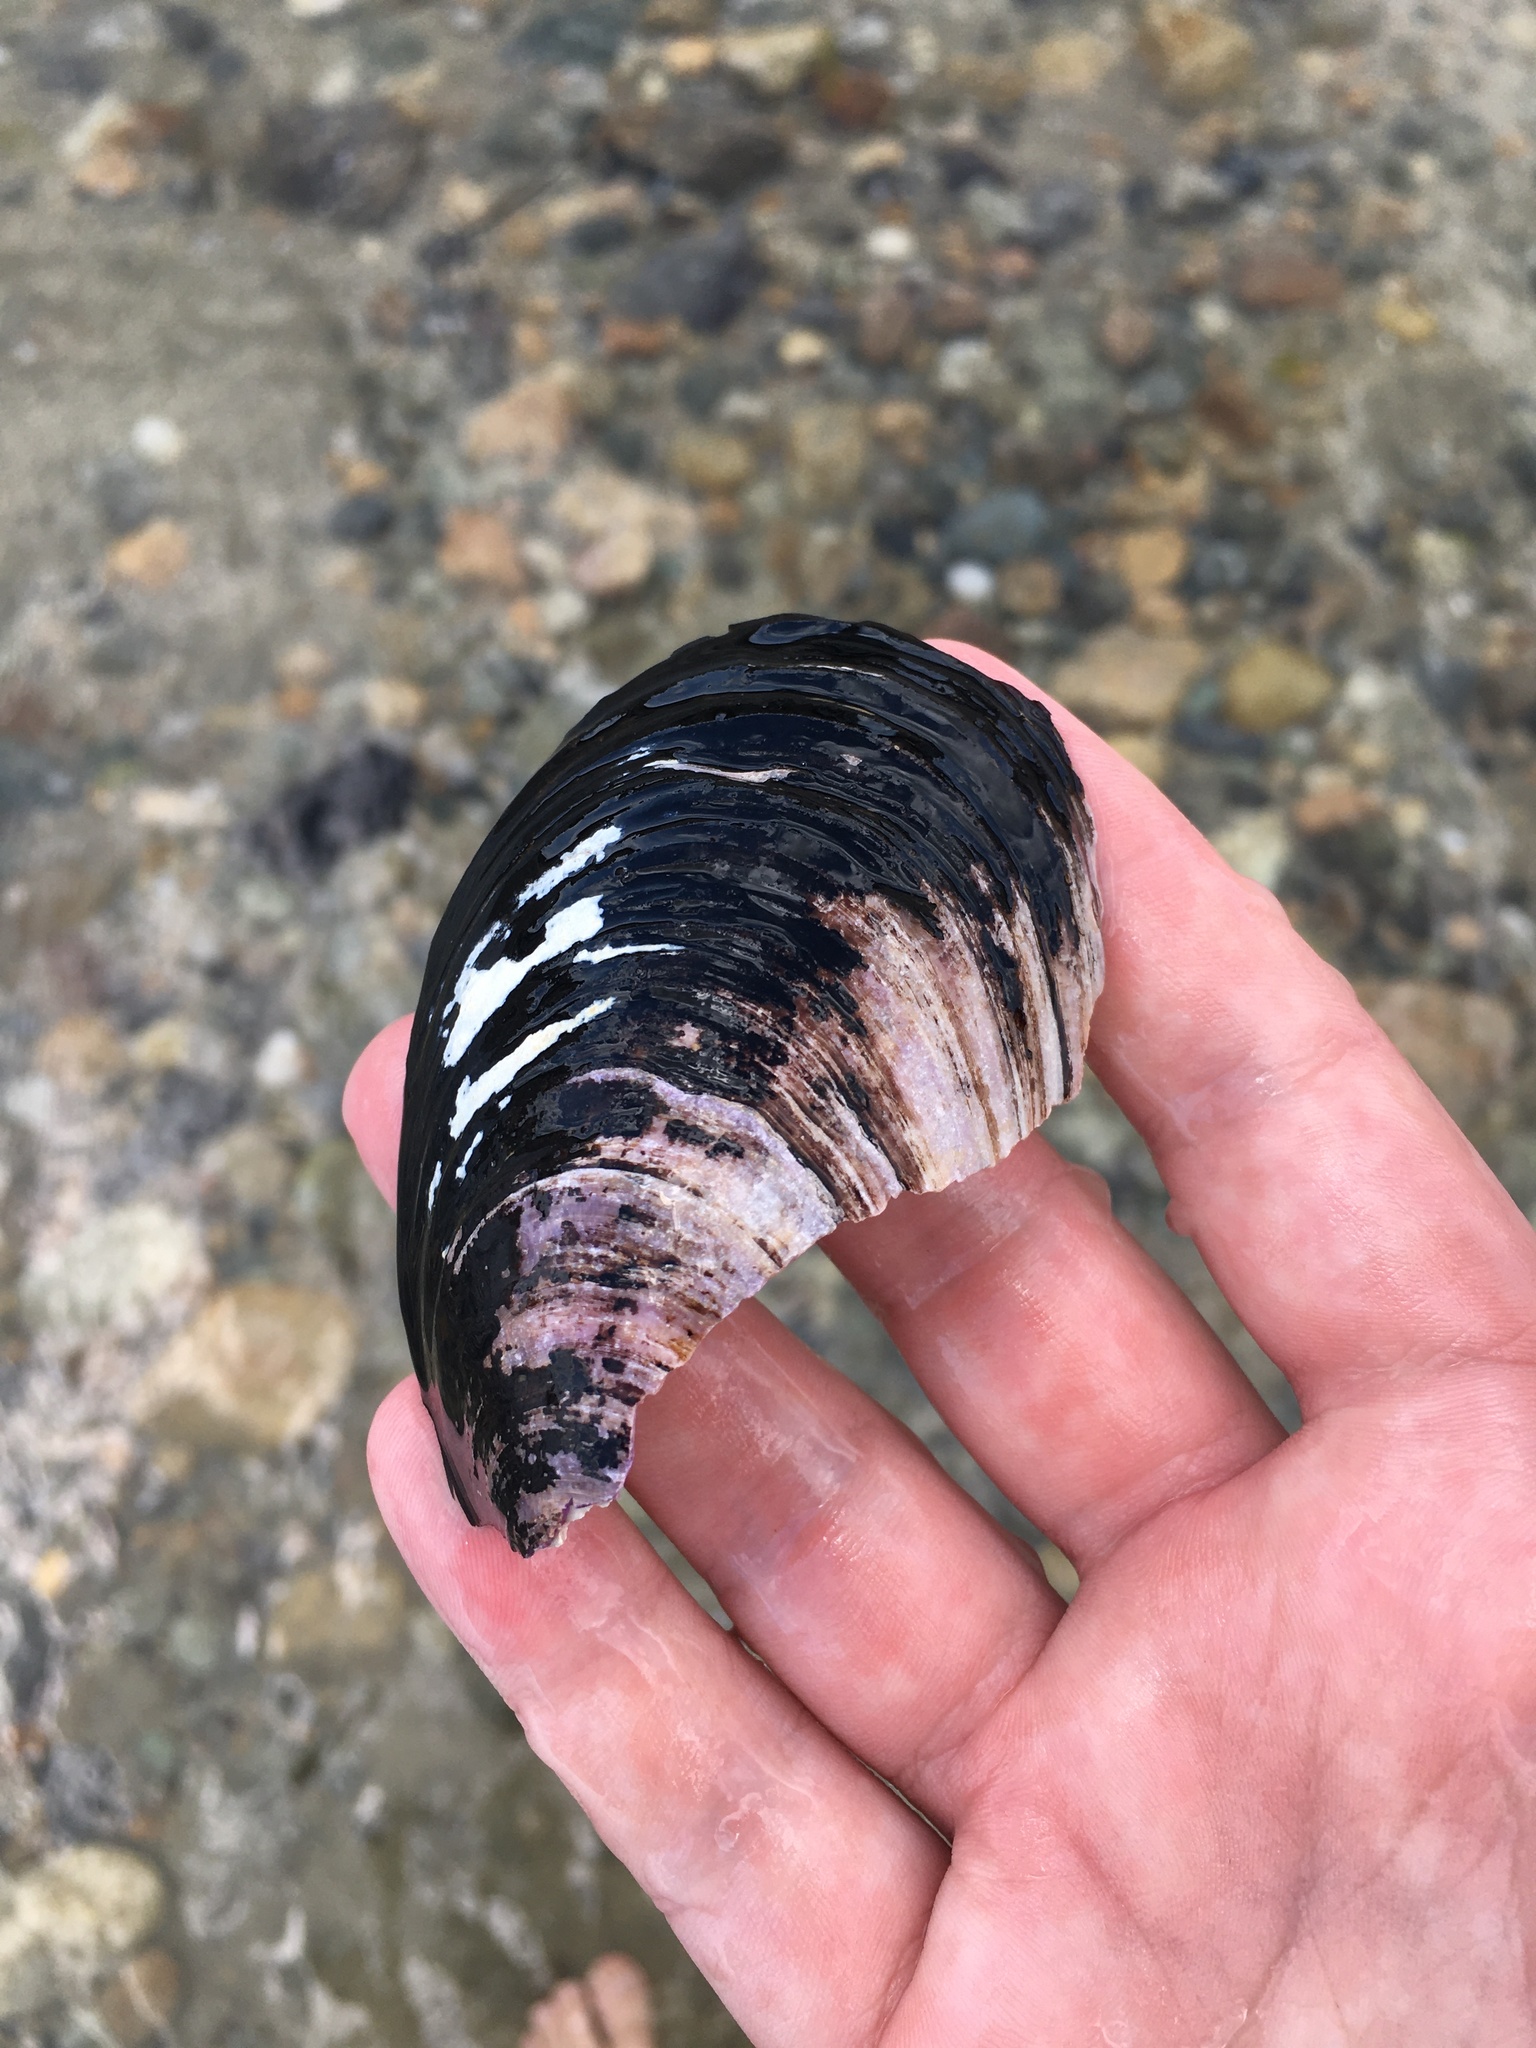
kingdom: Animalia
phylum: Mollusca
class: Bivalvia
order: Mytilida
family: Mytilidae
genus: Modiolus
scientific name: Modiolus modiolus
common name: Horse-mussel
